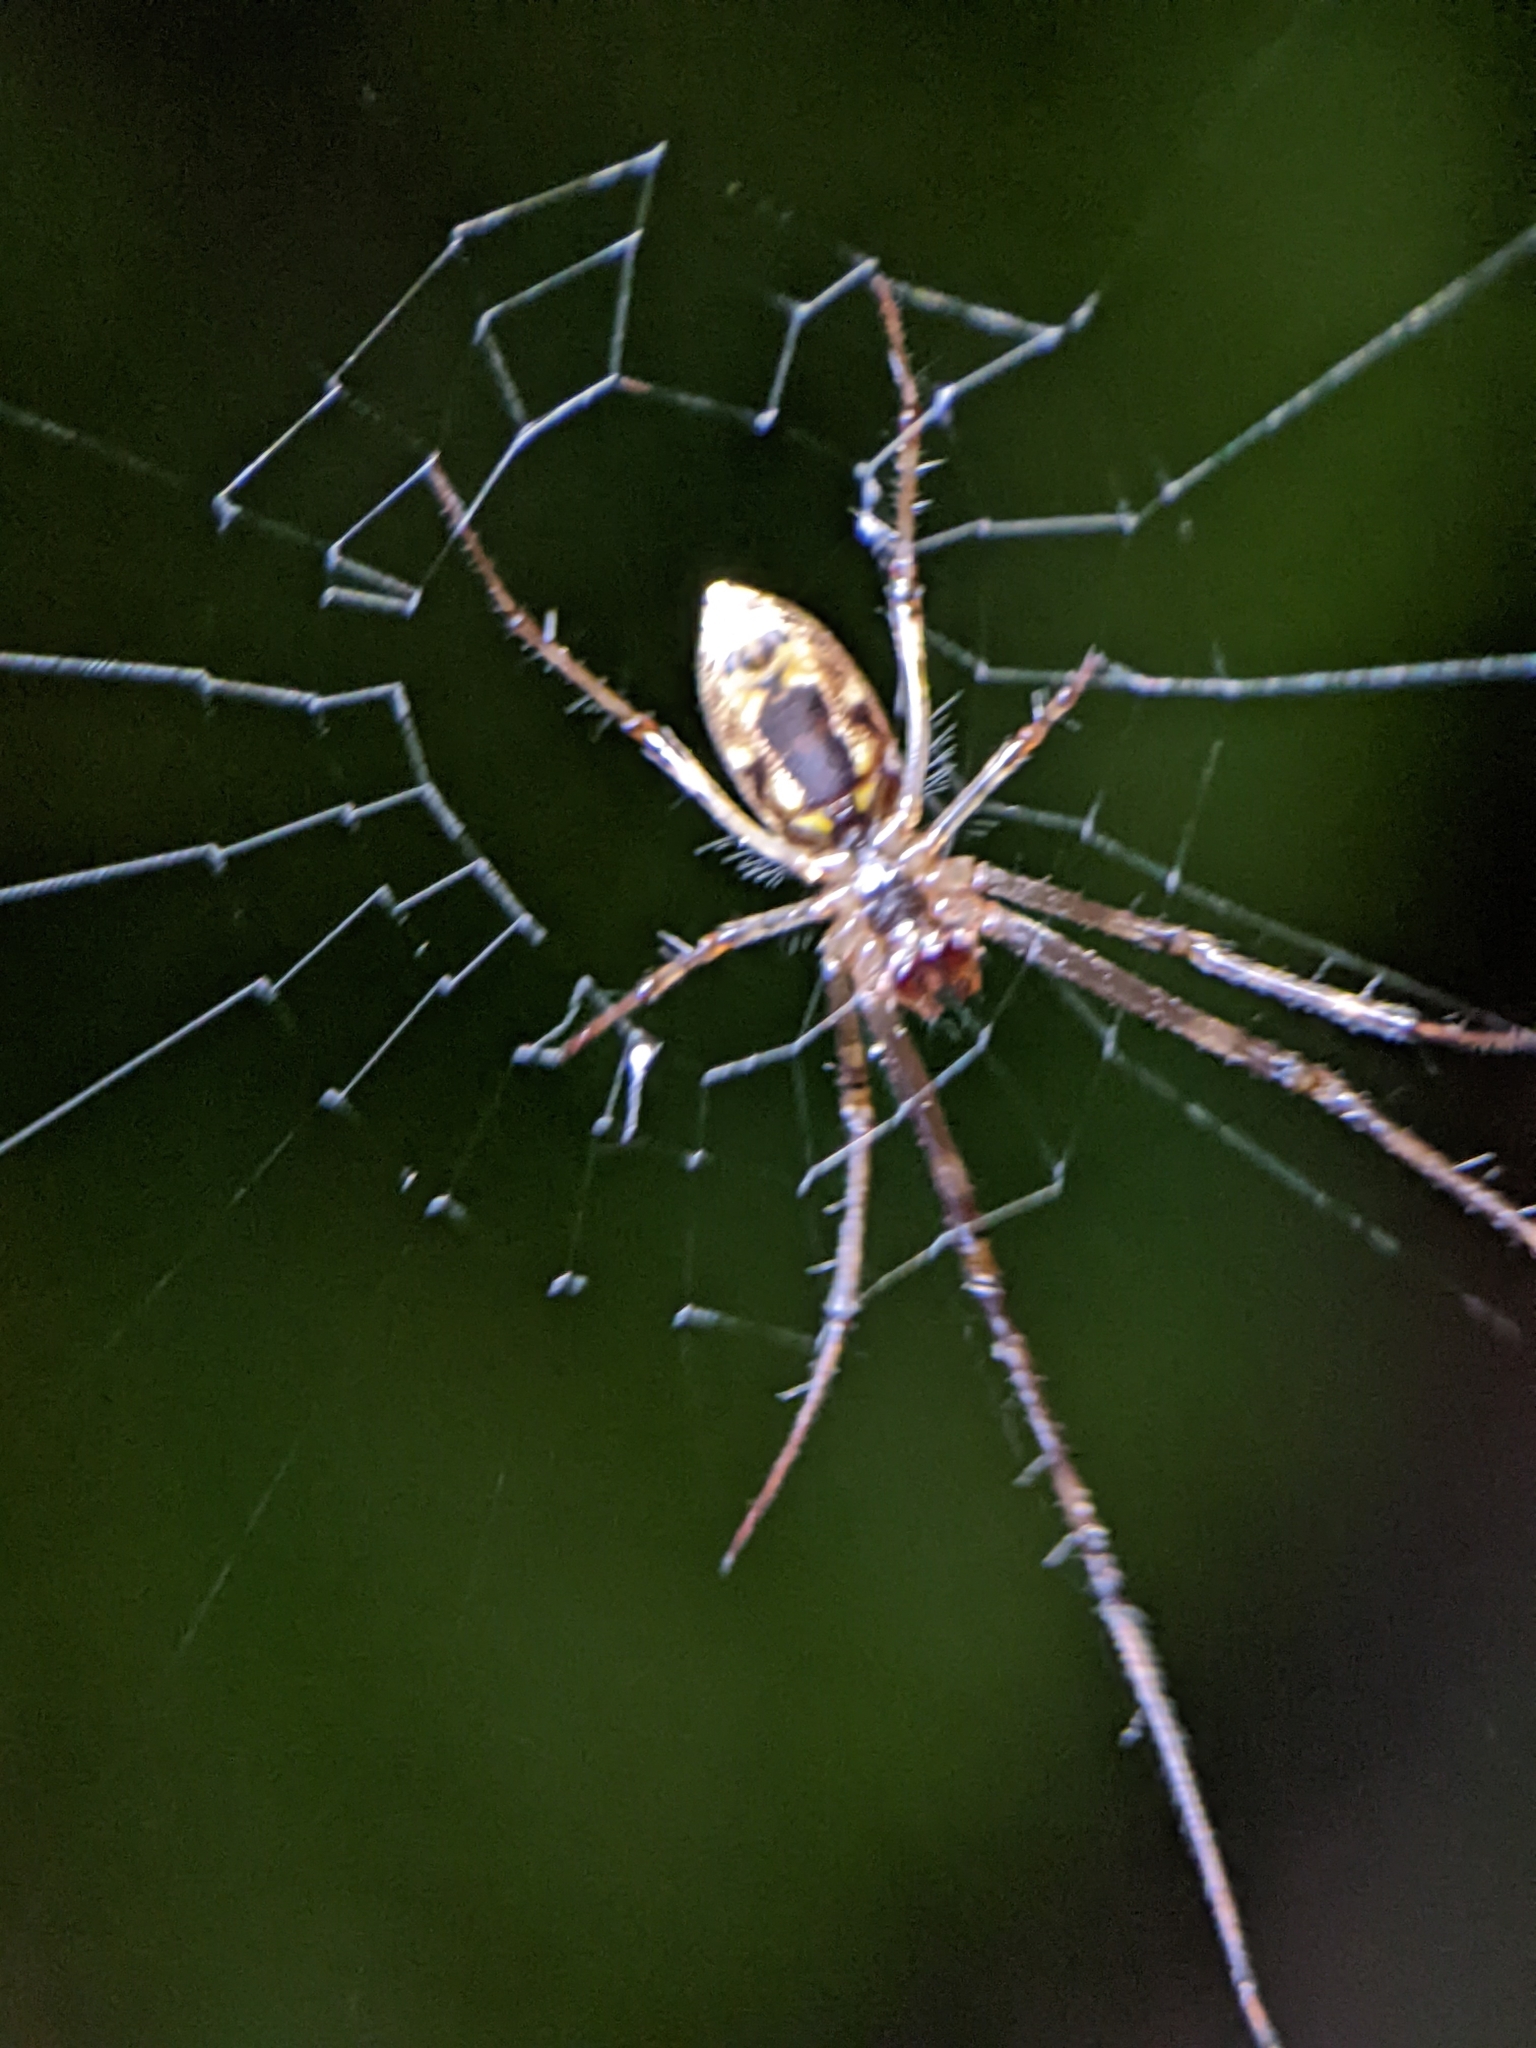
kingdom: Animalia
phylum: Arthropoda
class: Arachnida
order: Araneae
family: Tetragnathidae
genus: Tylorida
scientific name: Tylorida ventralis
